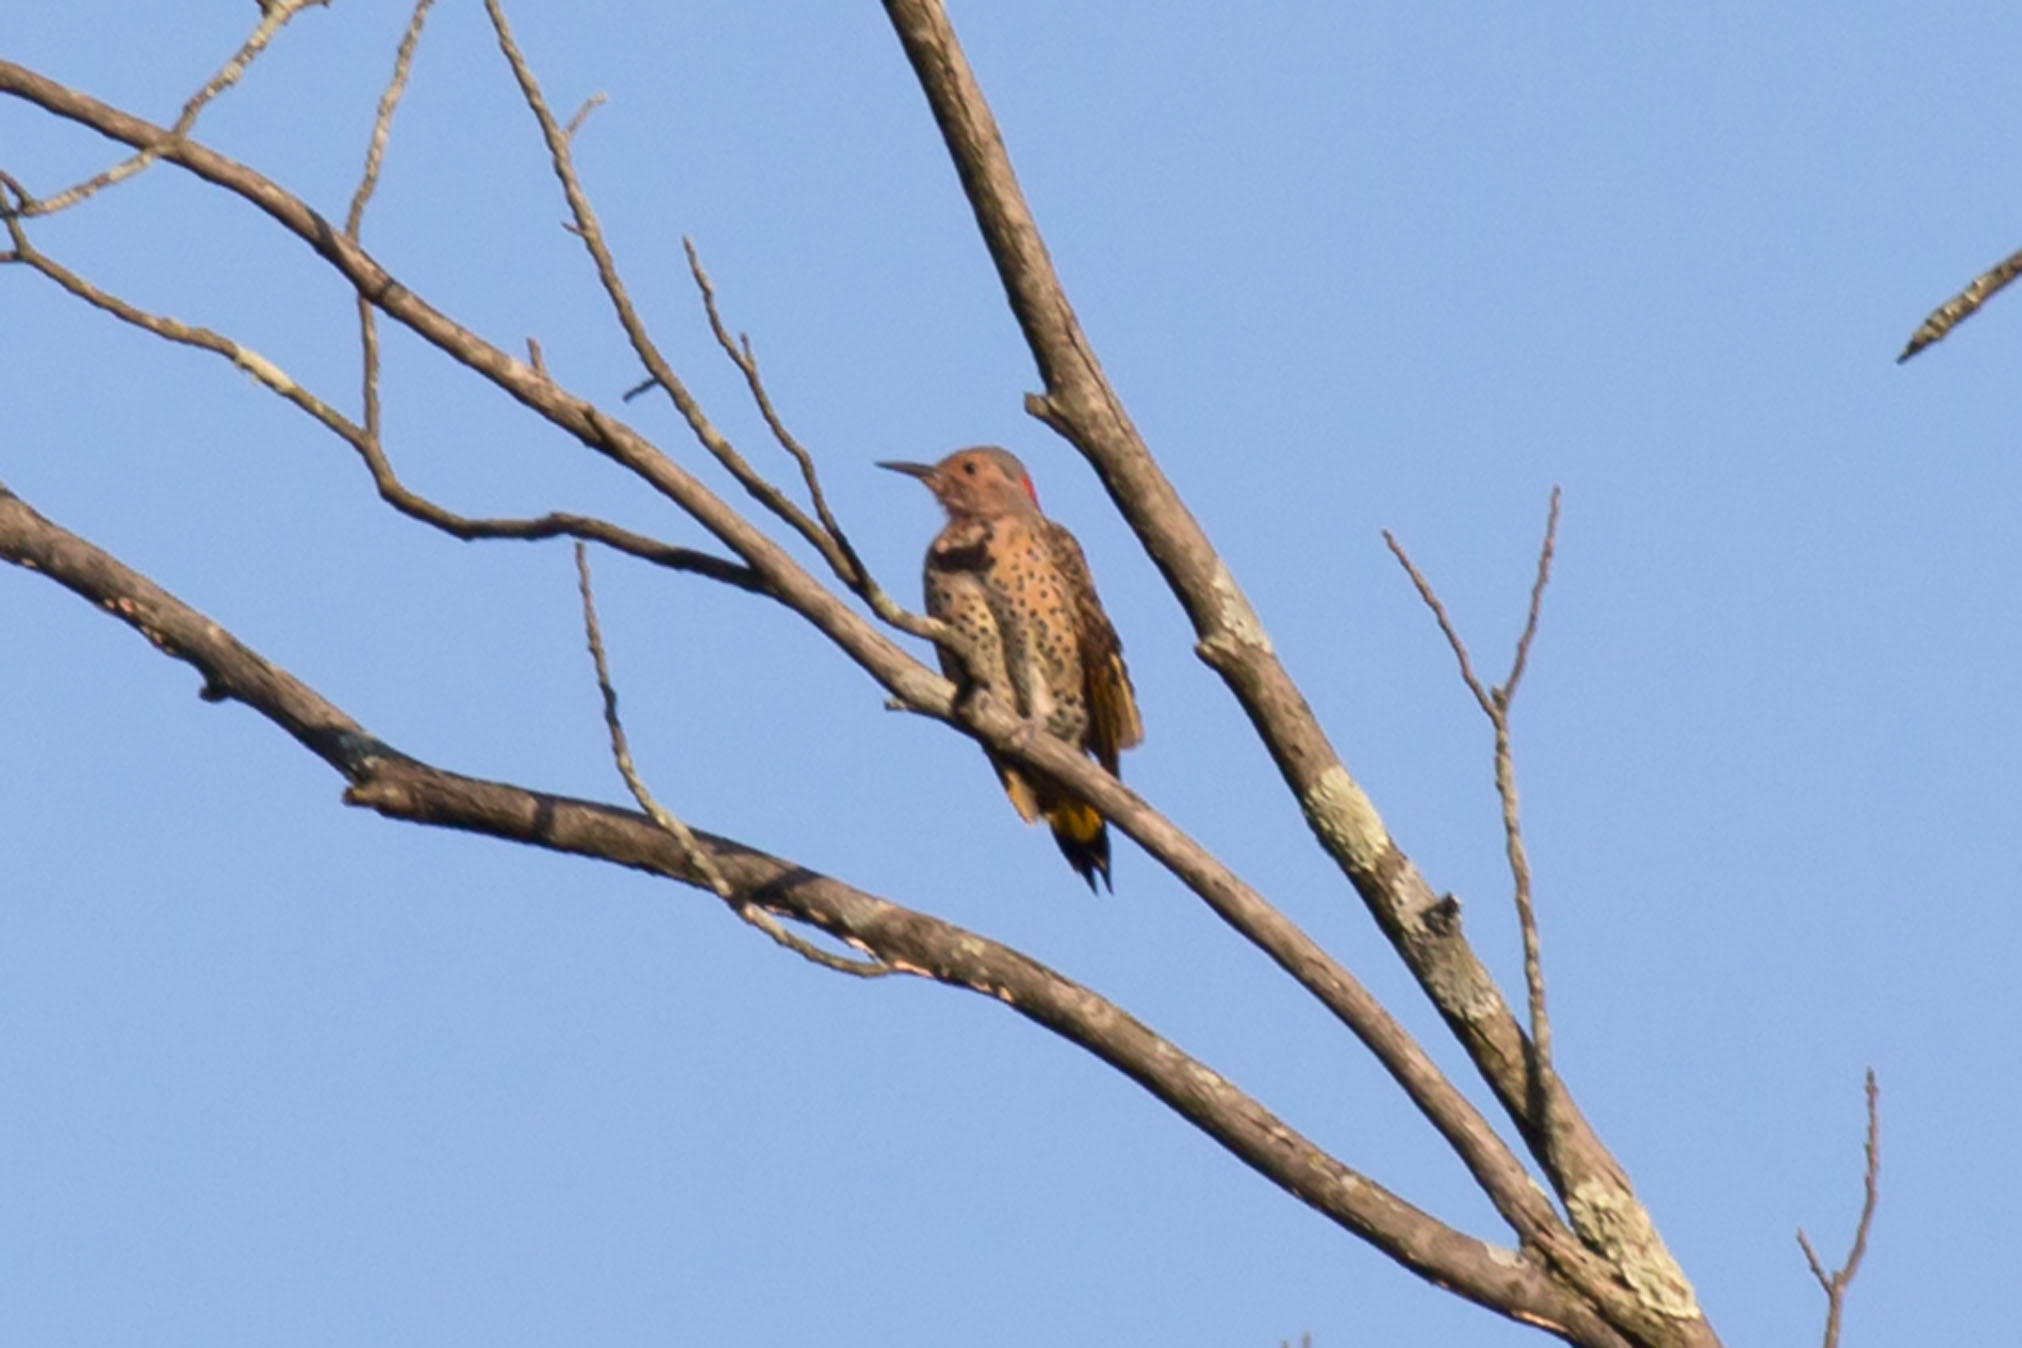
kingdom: Animalia
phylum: Chordata
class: Aves
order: Piciformes
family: Picidae
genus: Colaptes
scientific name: Colaptes auratus
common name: Northern flicker
